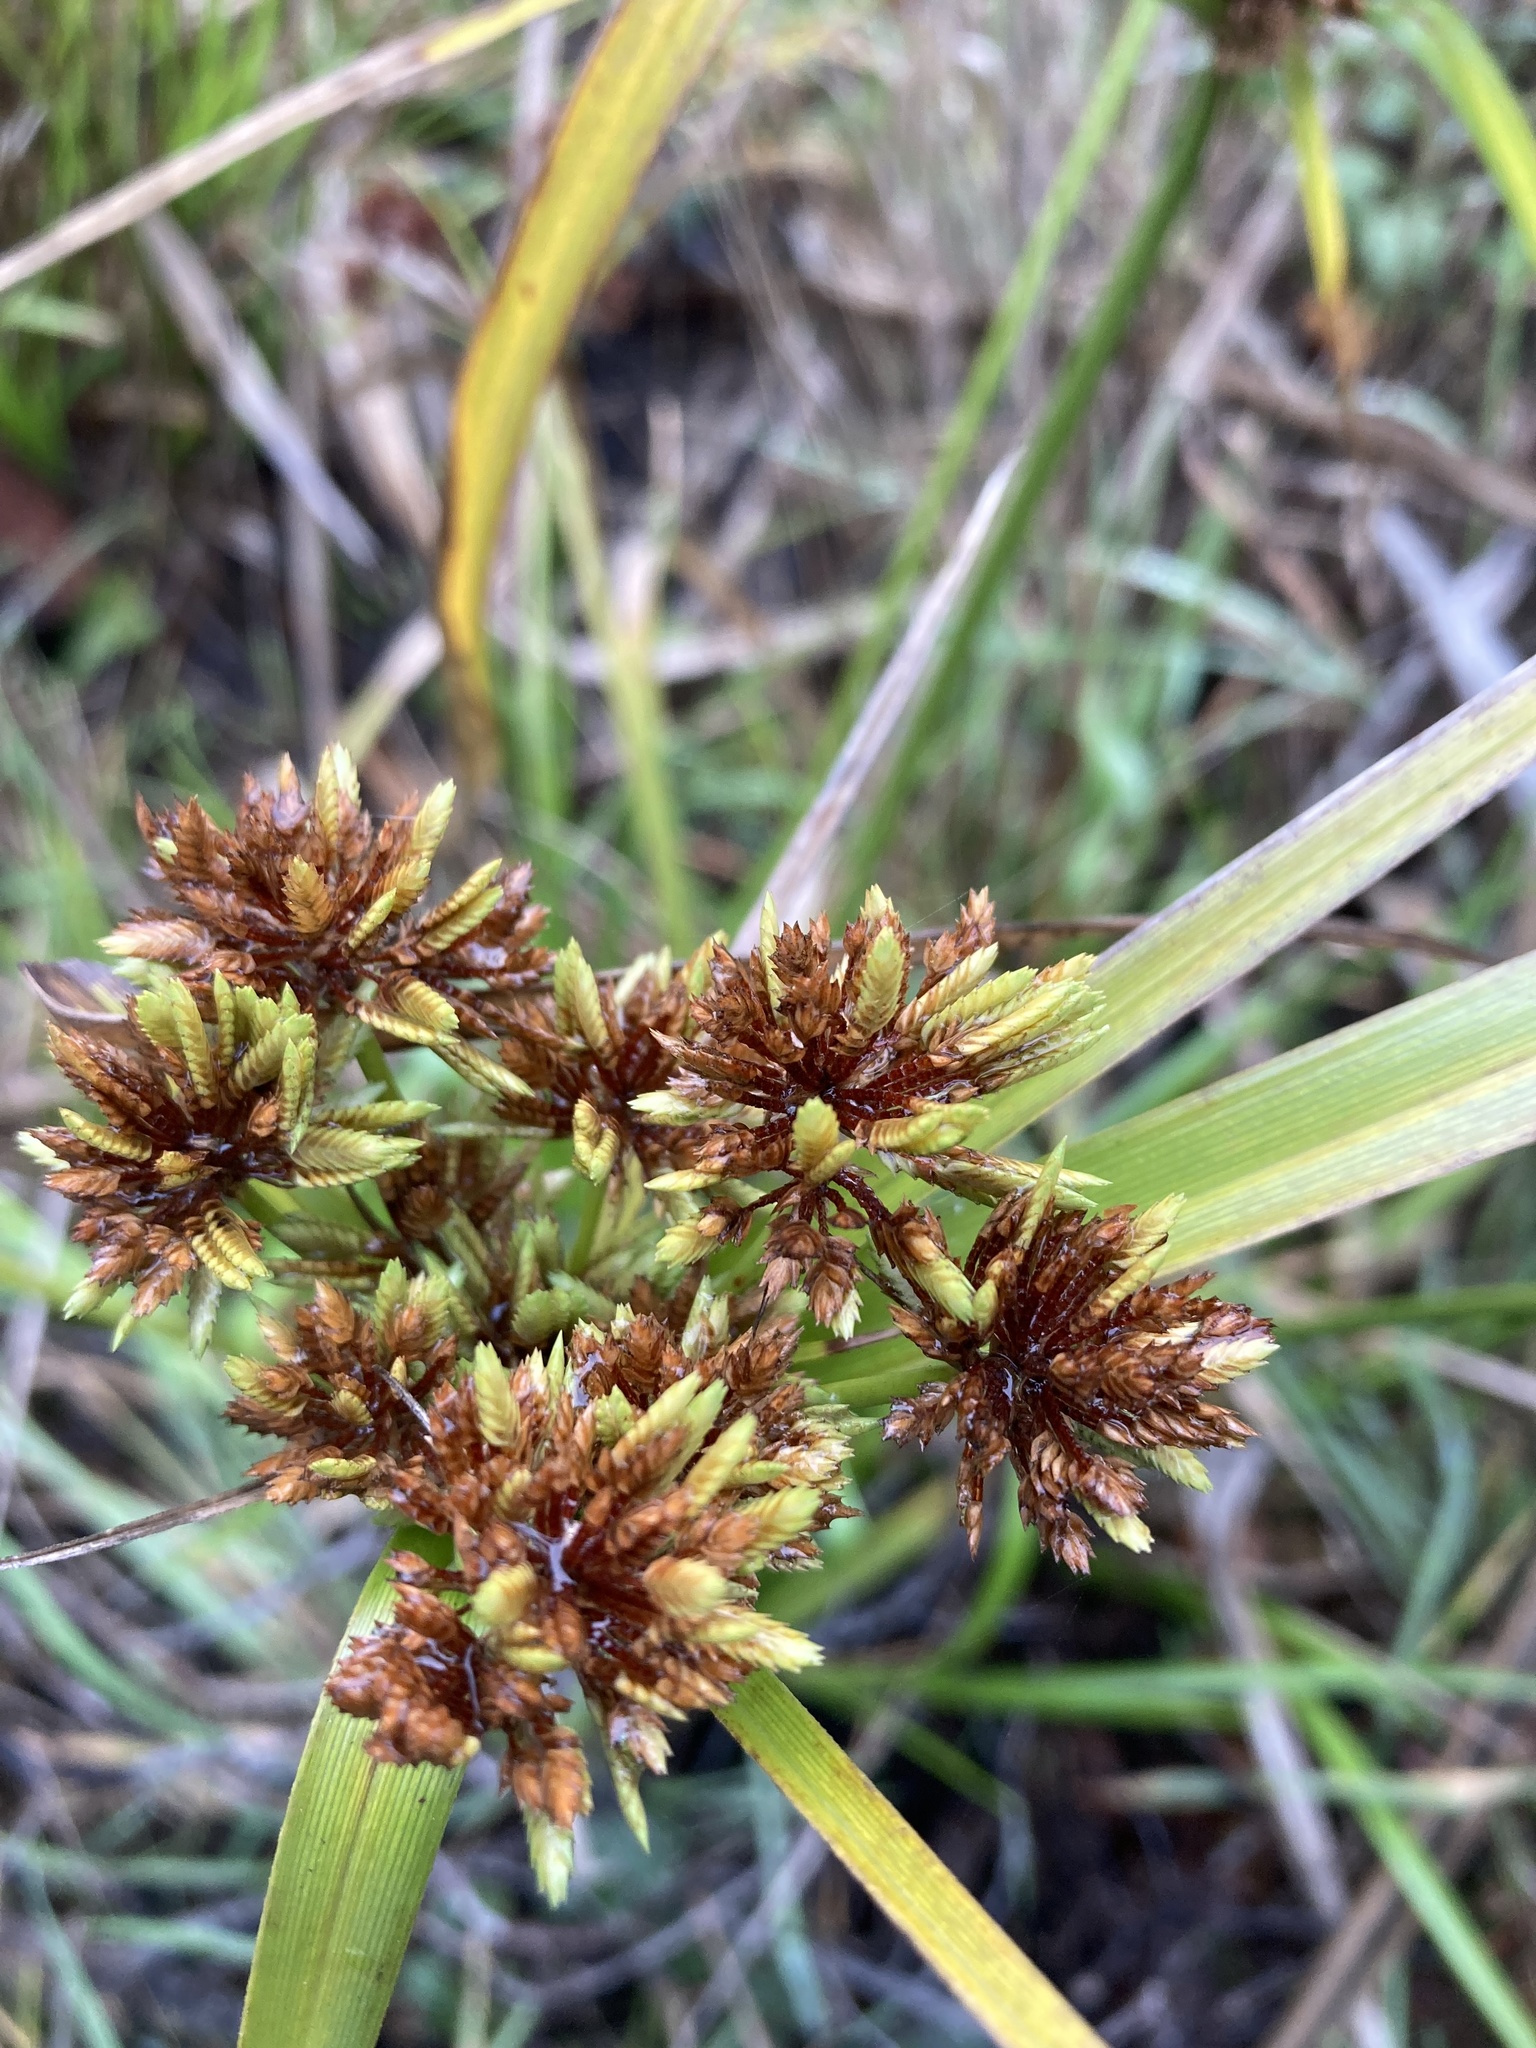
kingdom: Plantae
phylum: Tracheophyta
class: Liliopsida
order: Poales
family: Cyperaceae
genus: Cyperus
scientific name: Cyperus eragrostis
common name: Tall flatsedge
